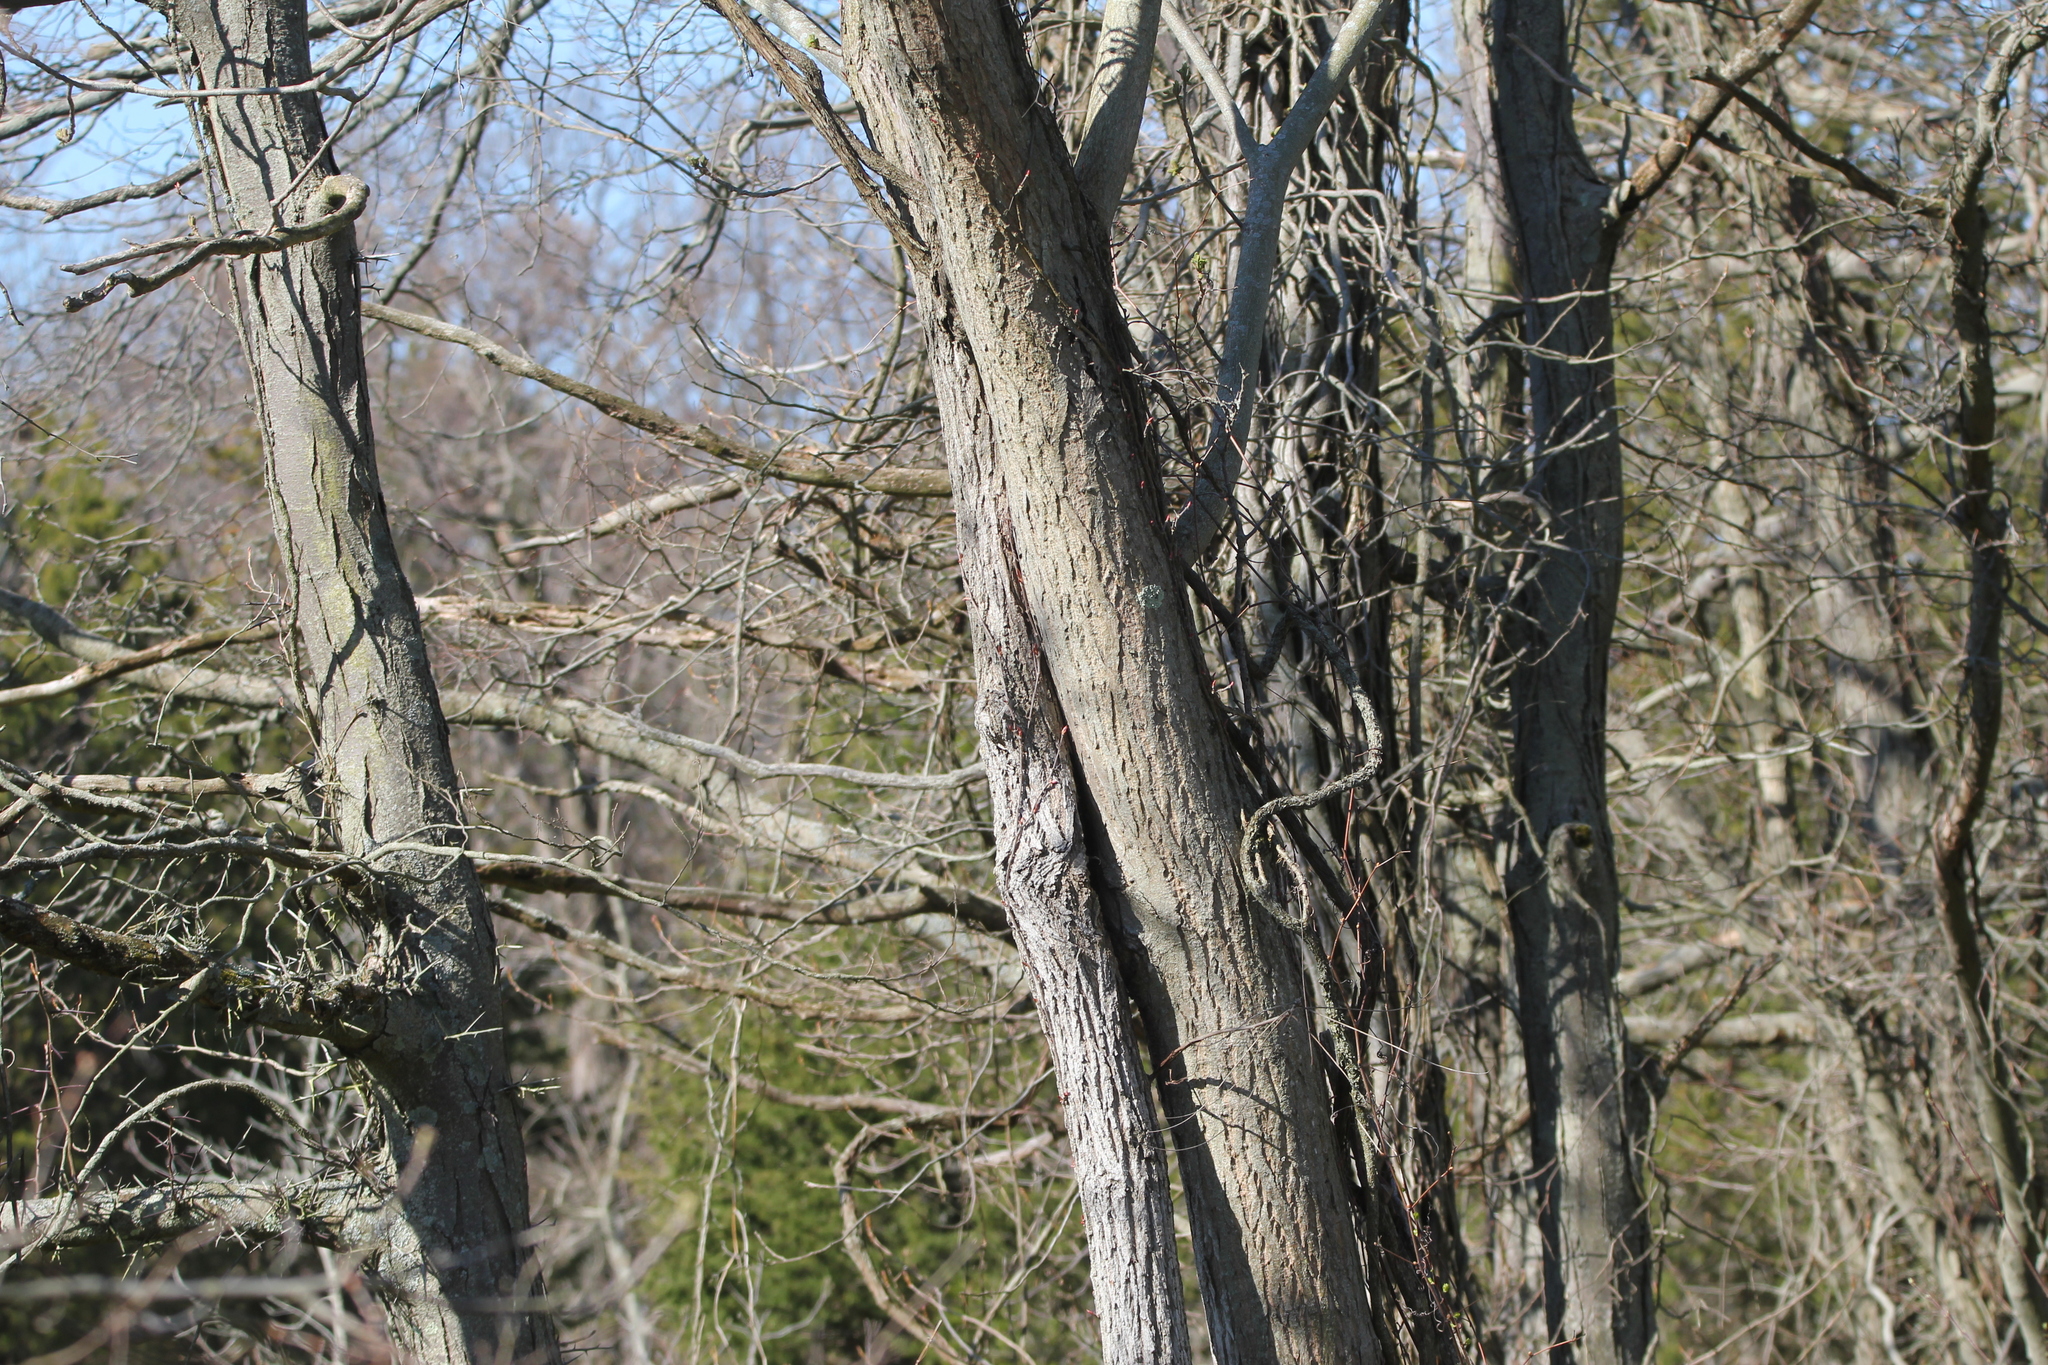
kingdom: Plantae
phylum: Tracheophyta
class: Magnoliopsida
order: Fagales
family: Juglandaceae
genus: Juglans
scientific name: Juglans cinerea
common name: Butternut
